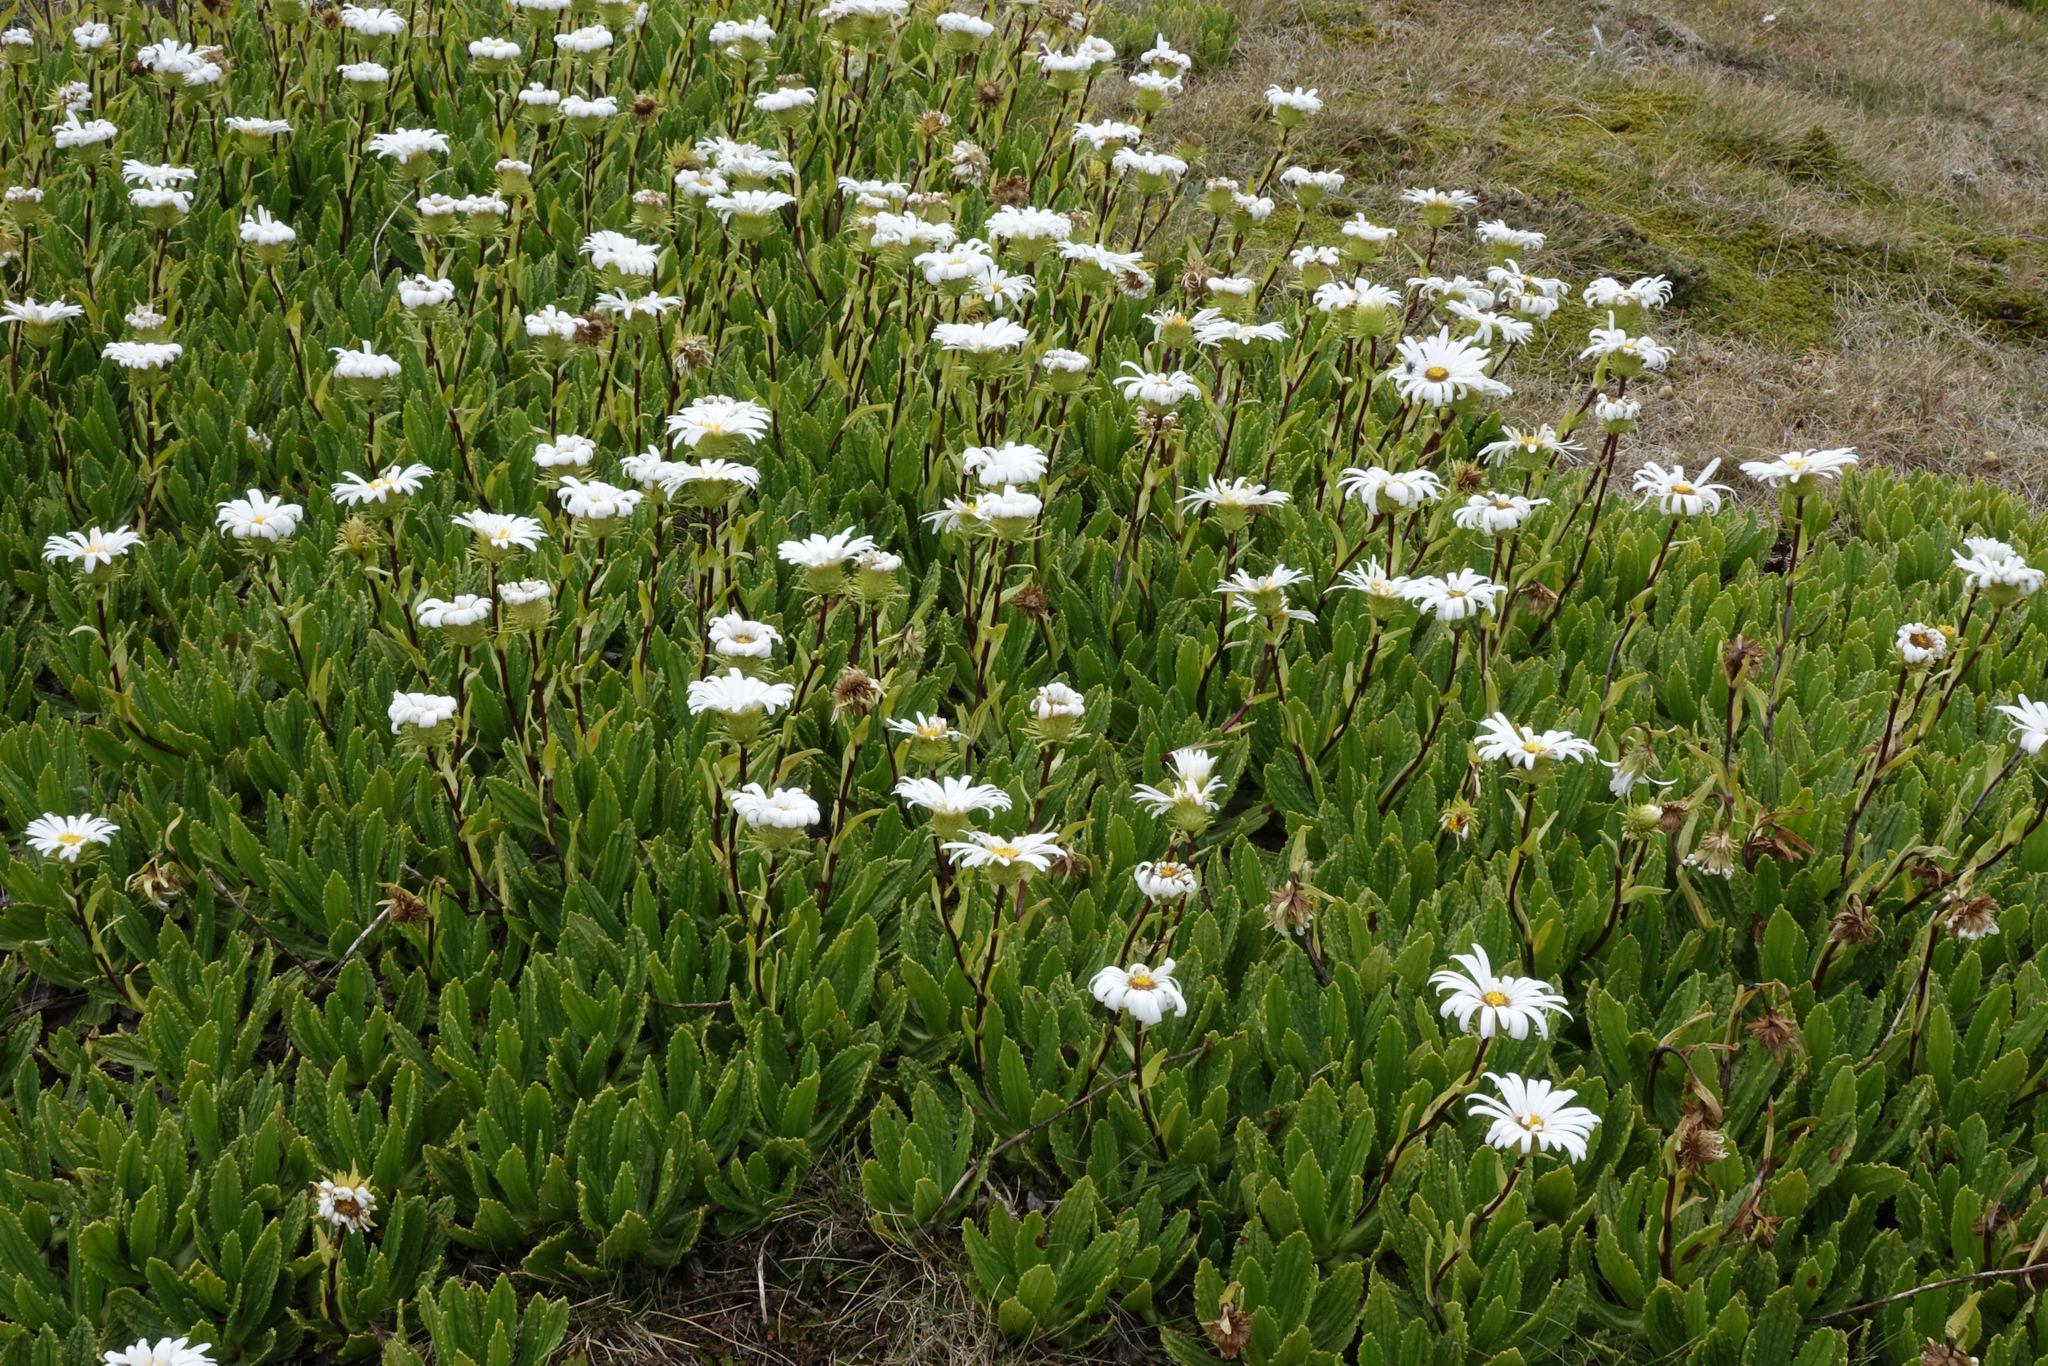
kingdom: Plantae
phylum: Tracheophyta
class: Magnoliopsida
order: Asterales
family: Asteraceae
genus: Celmisia
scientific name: Celmisia prorepens
